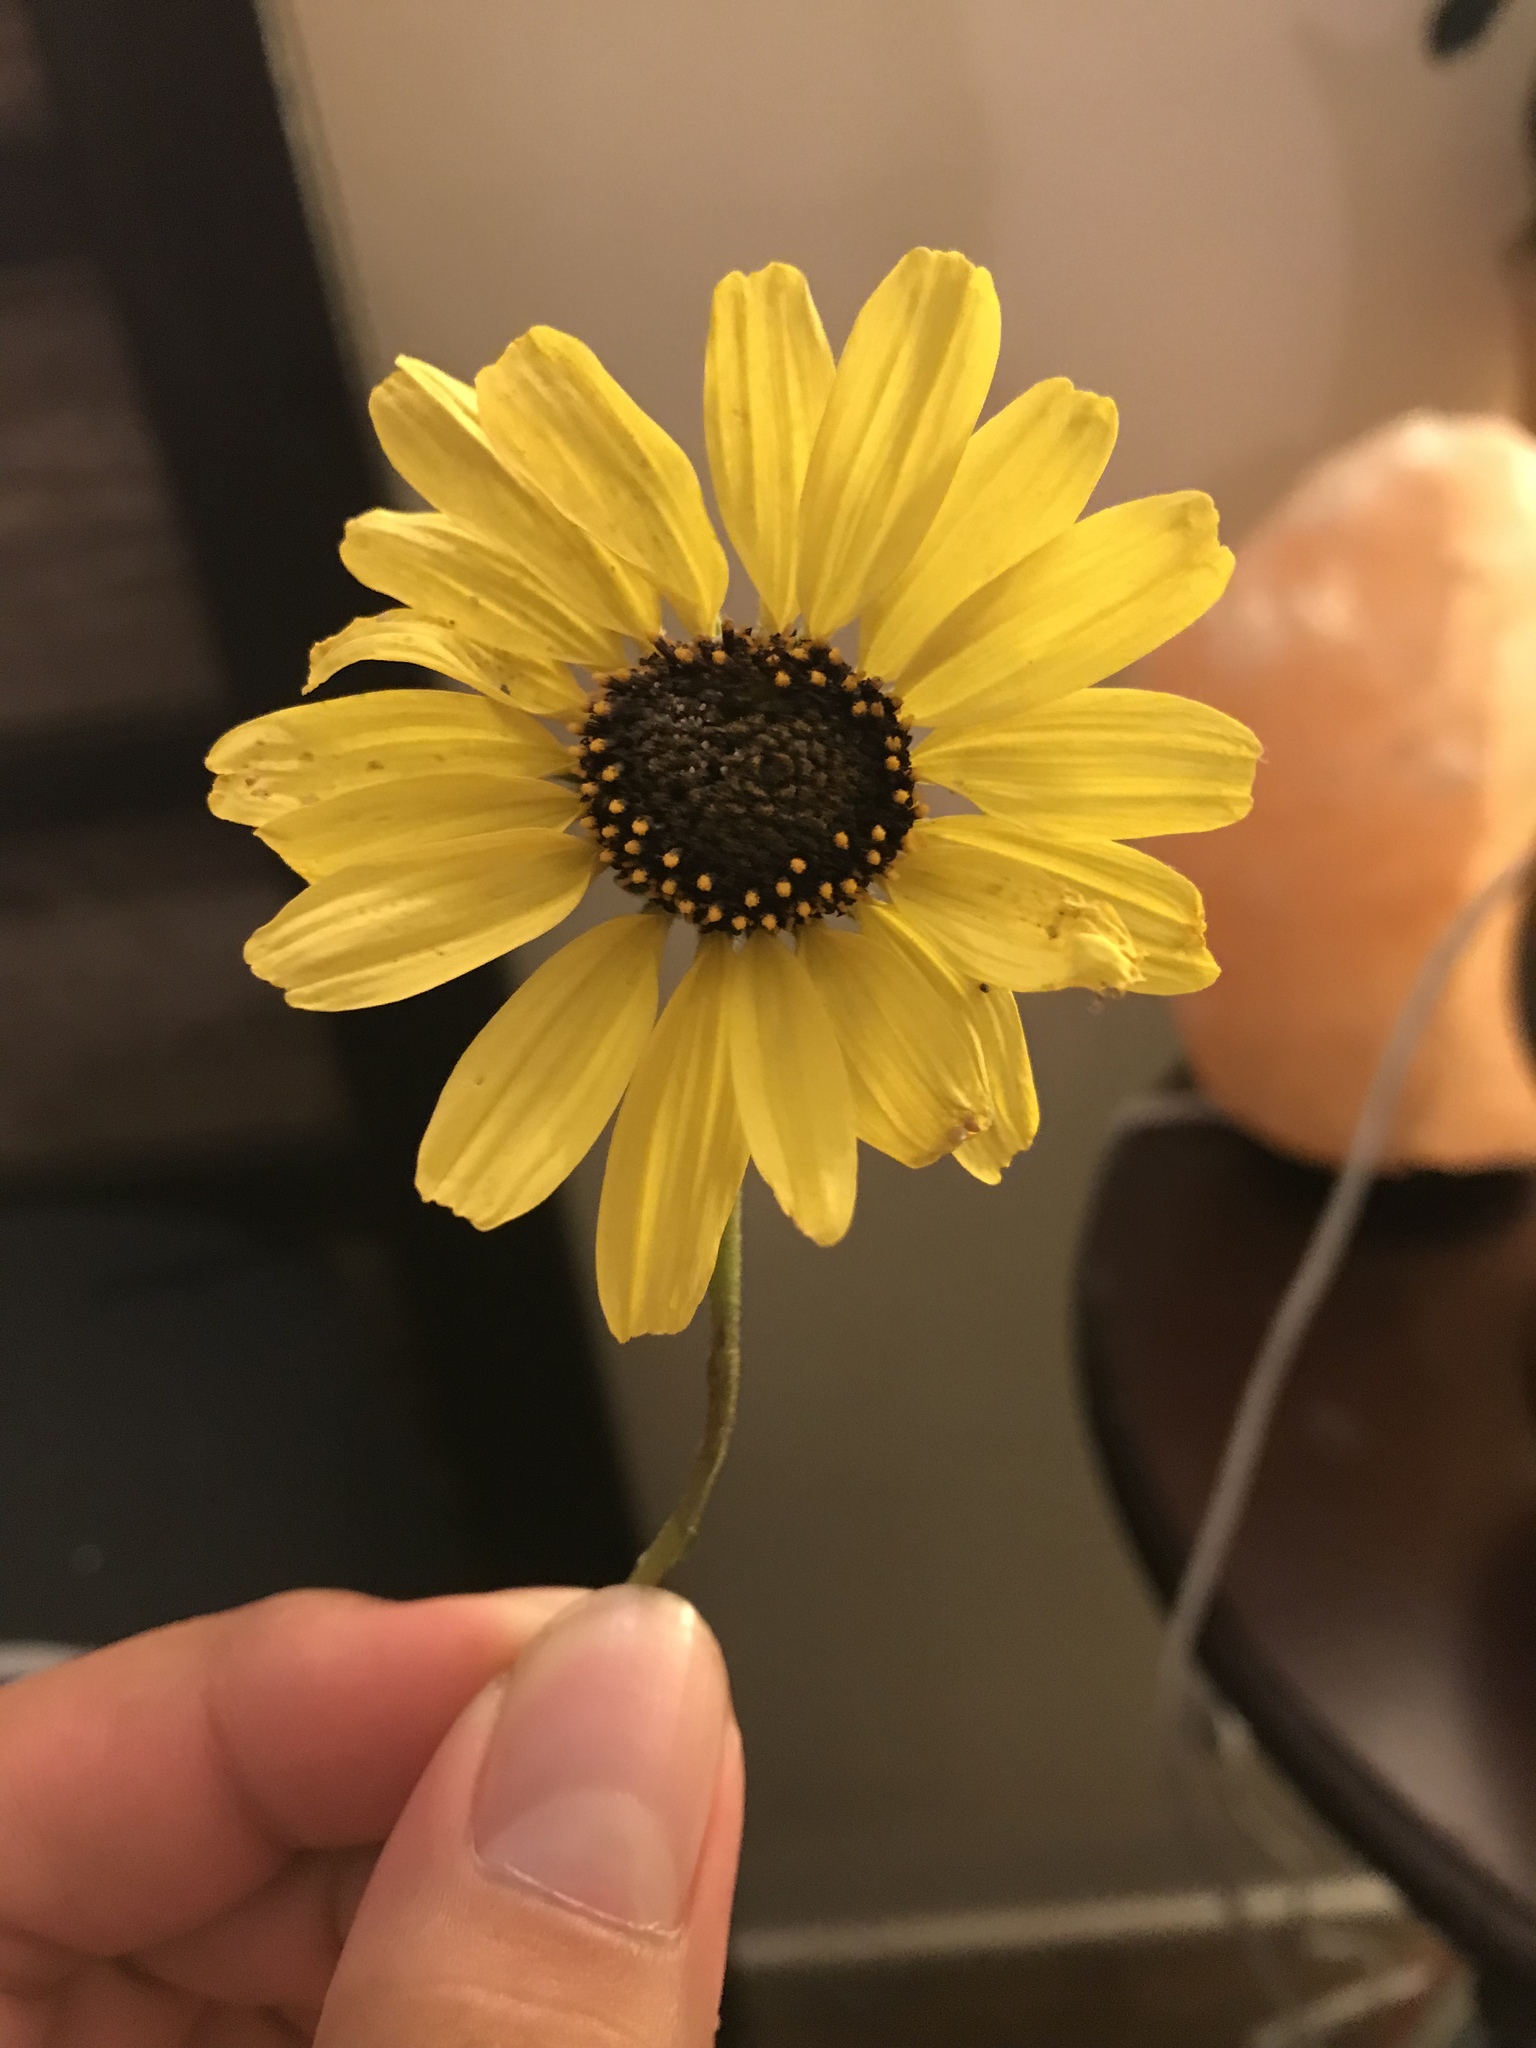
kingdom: Plantae
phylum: Tracheophyta
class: Magnoliopsida
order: Asterales
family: Asteraceae
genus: Encelia
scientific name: Encelia californica
